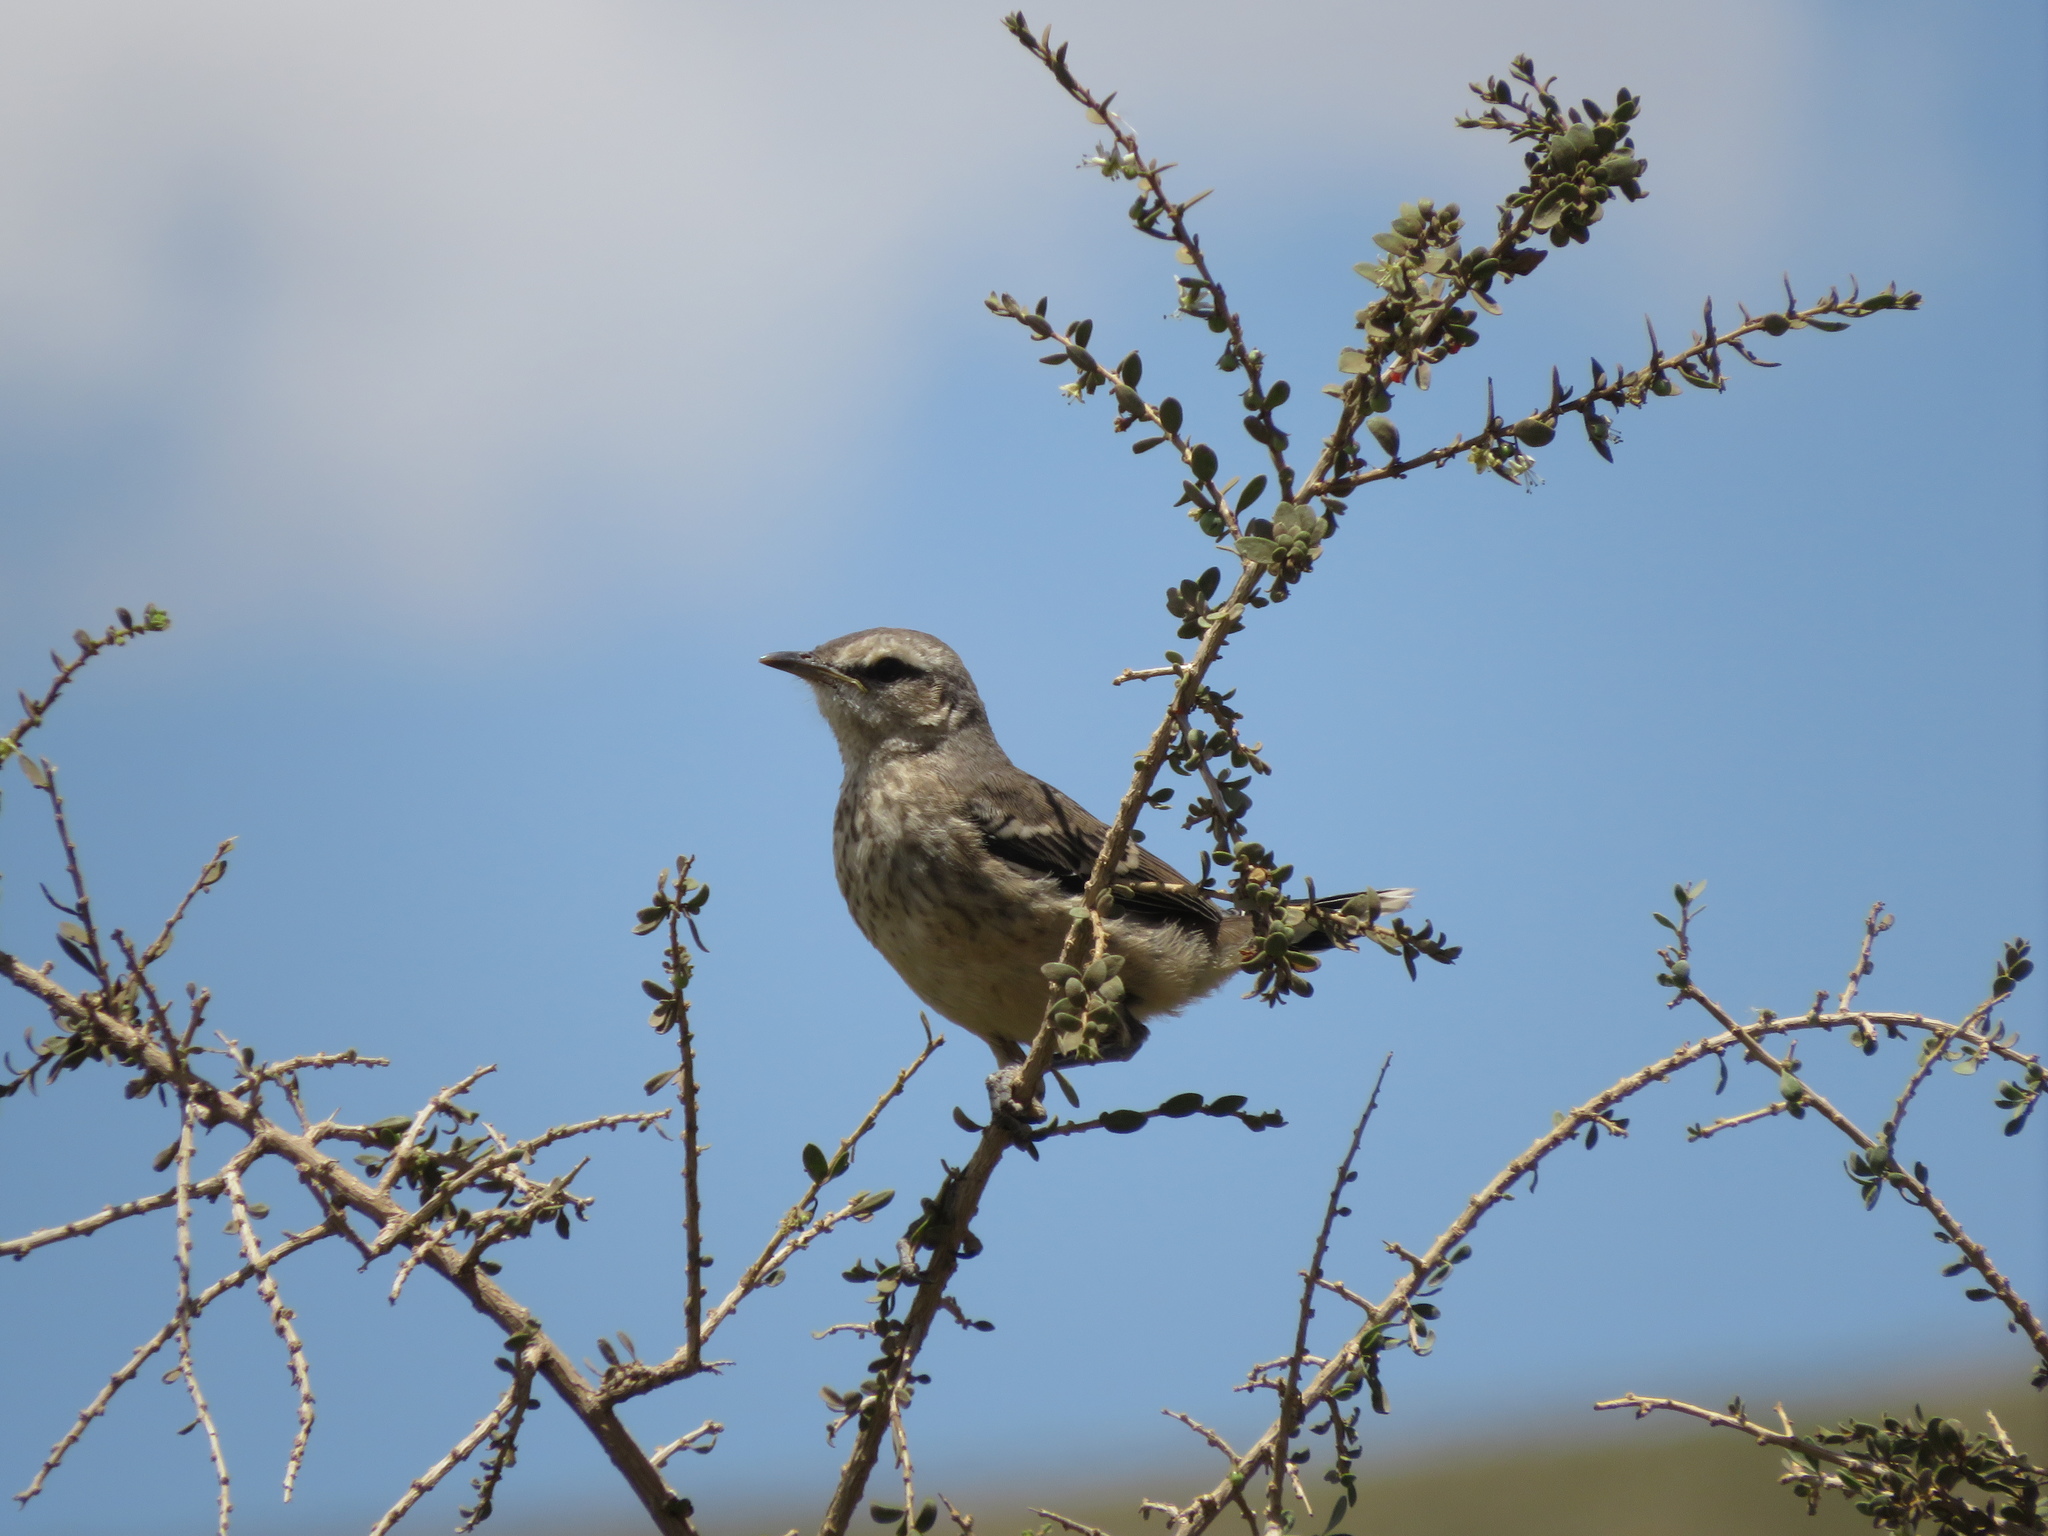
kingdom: Animalia
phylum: Chordata
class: Aves
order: Passeriformes
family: Mimidae
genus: Mimus
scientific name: Mimus patagonicus
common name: Patagonian mockingbird
